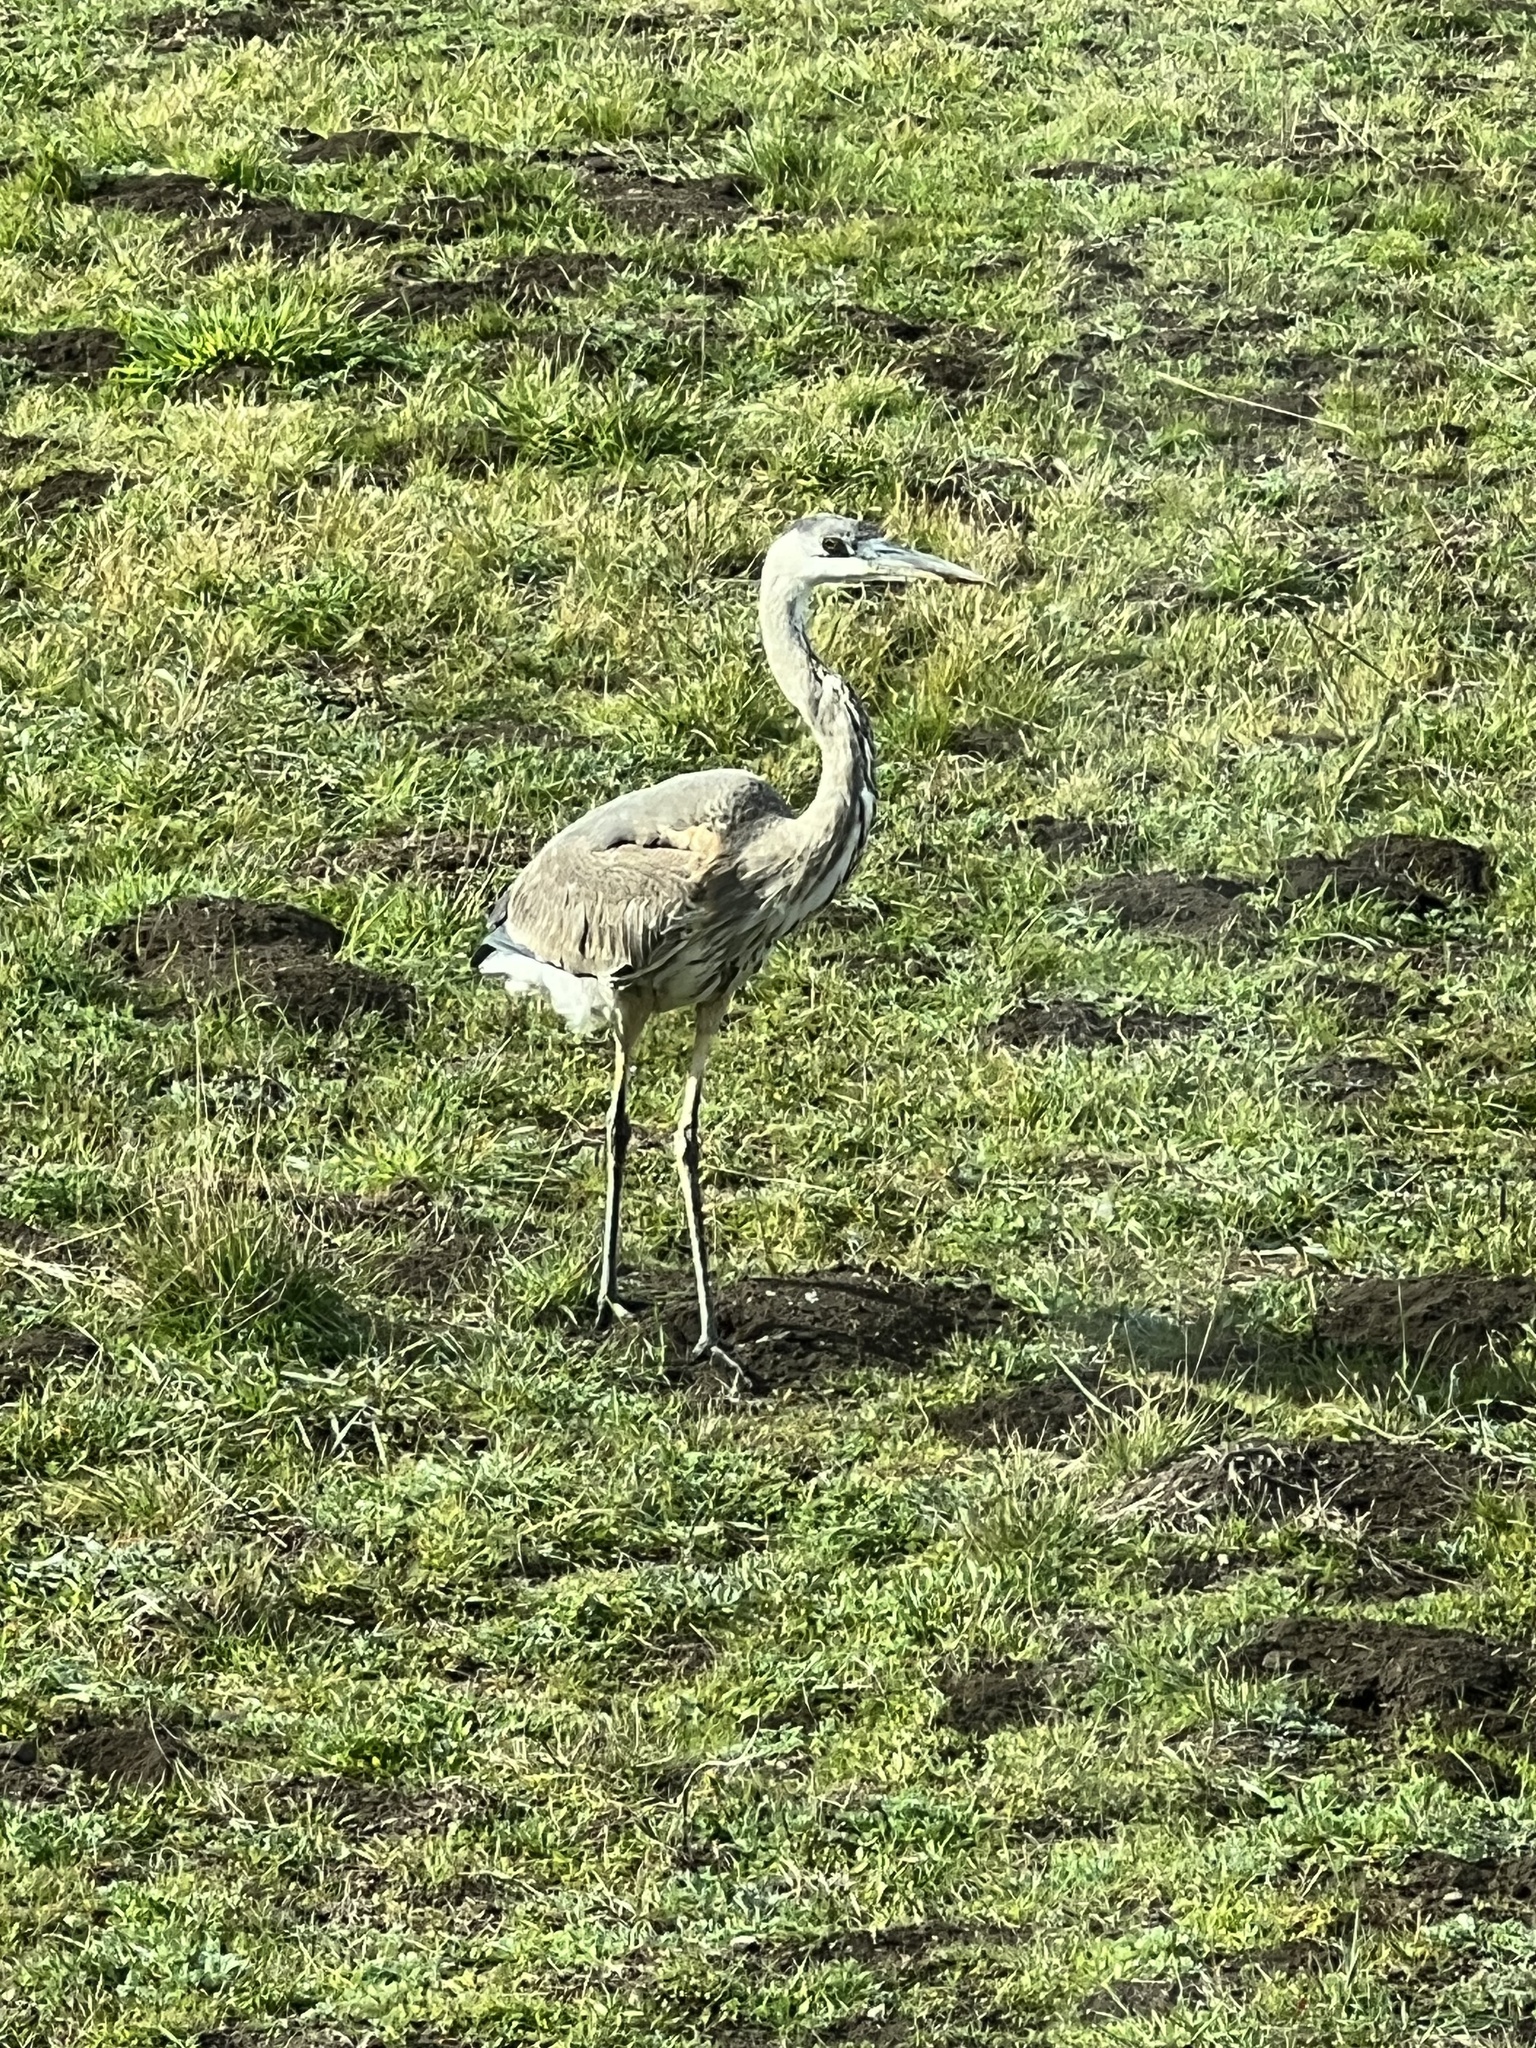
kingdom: Animalia
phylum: Chordata
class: Aves
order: Pelecaniformes
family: Ardeidae
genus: Ardea
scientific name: Ardea herodias
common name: Great blue heron
